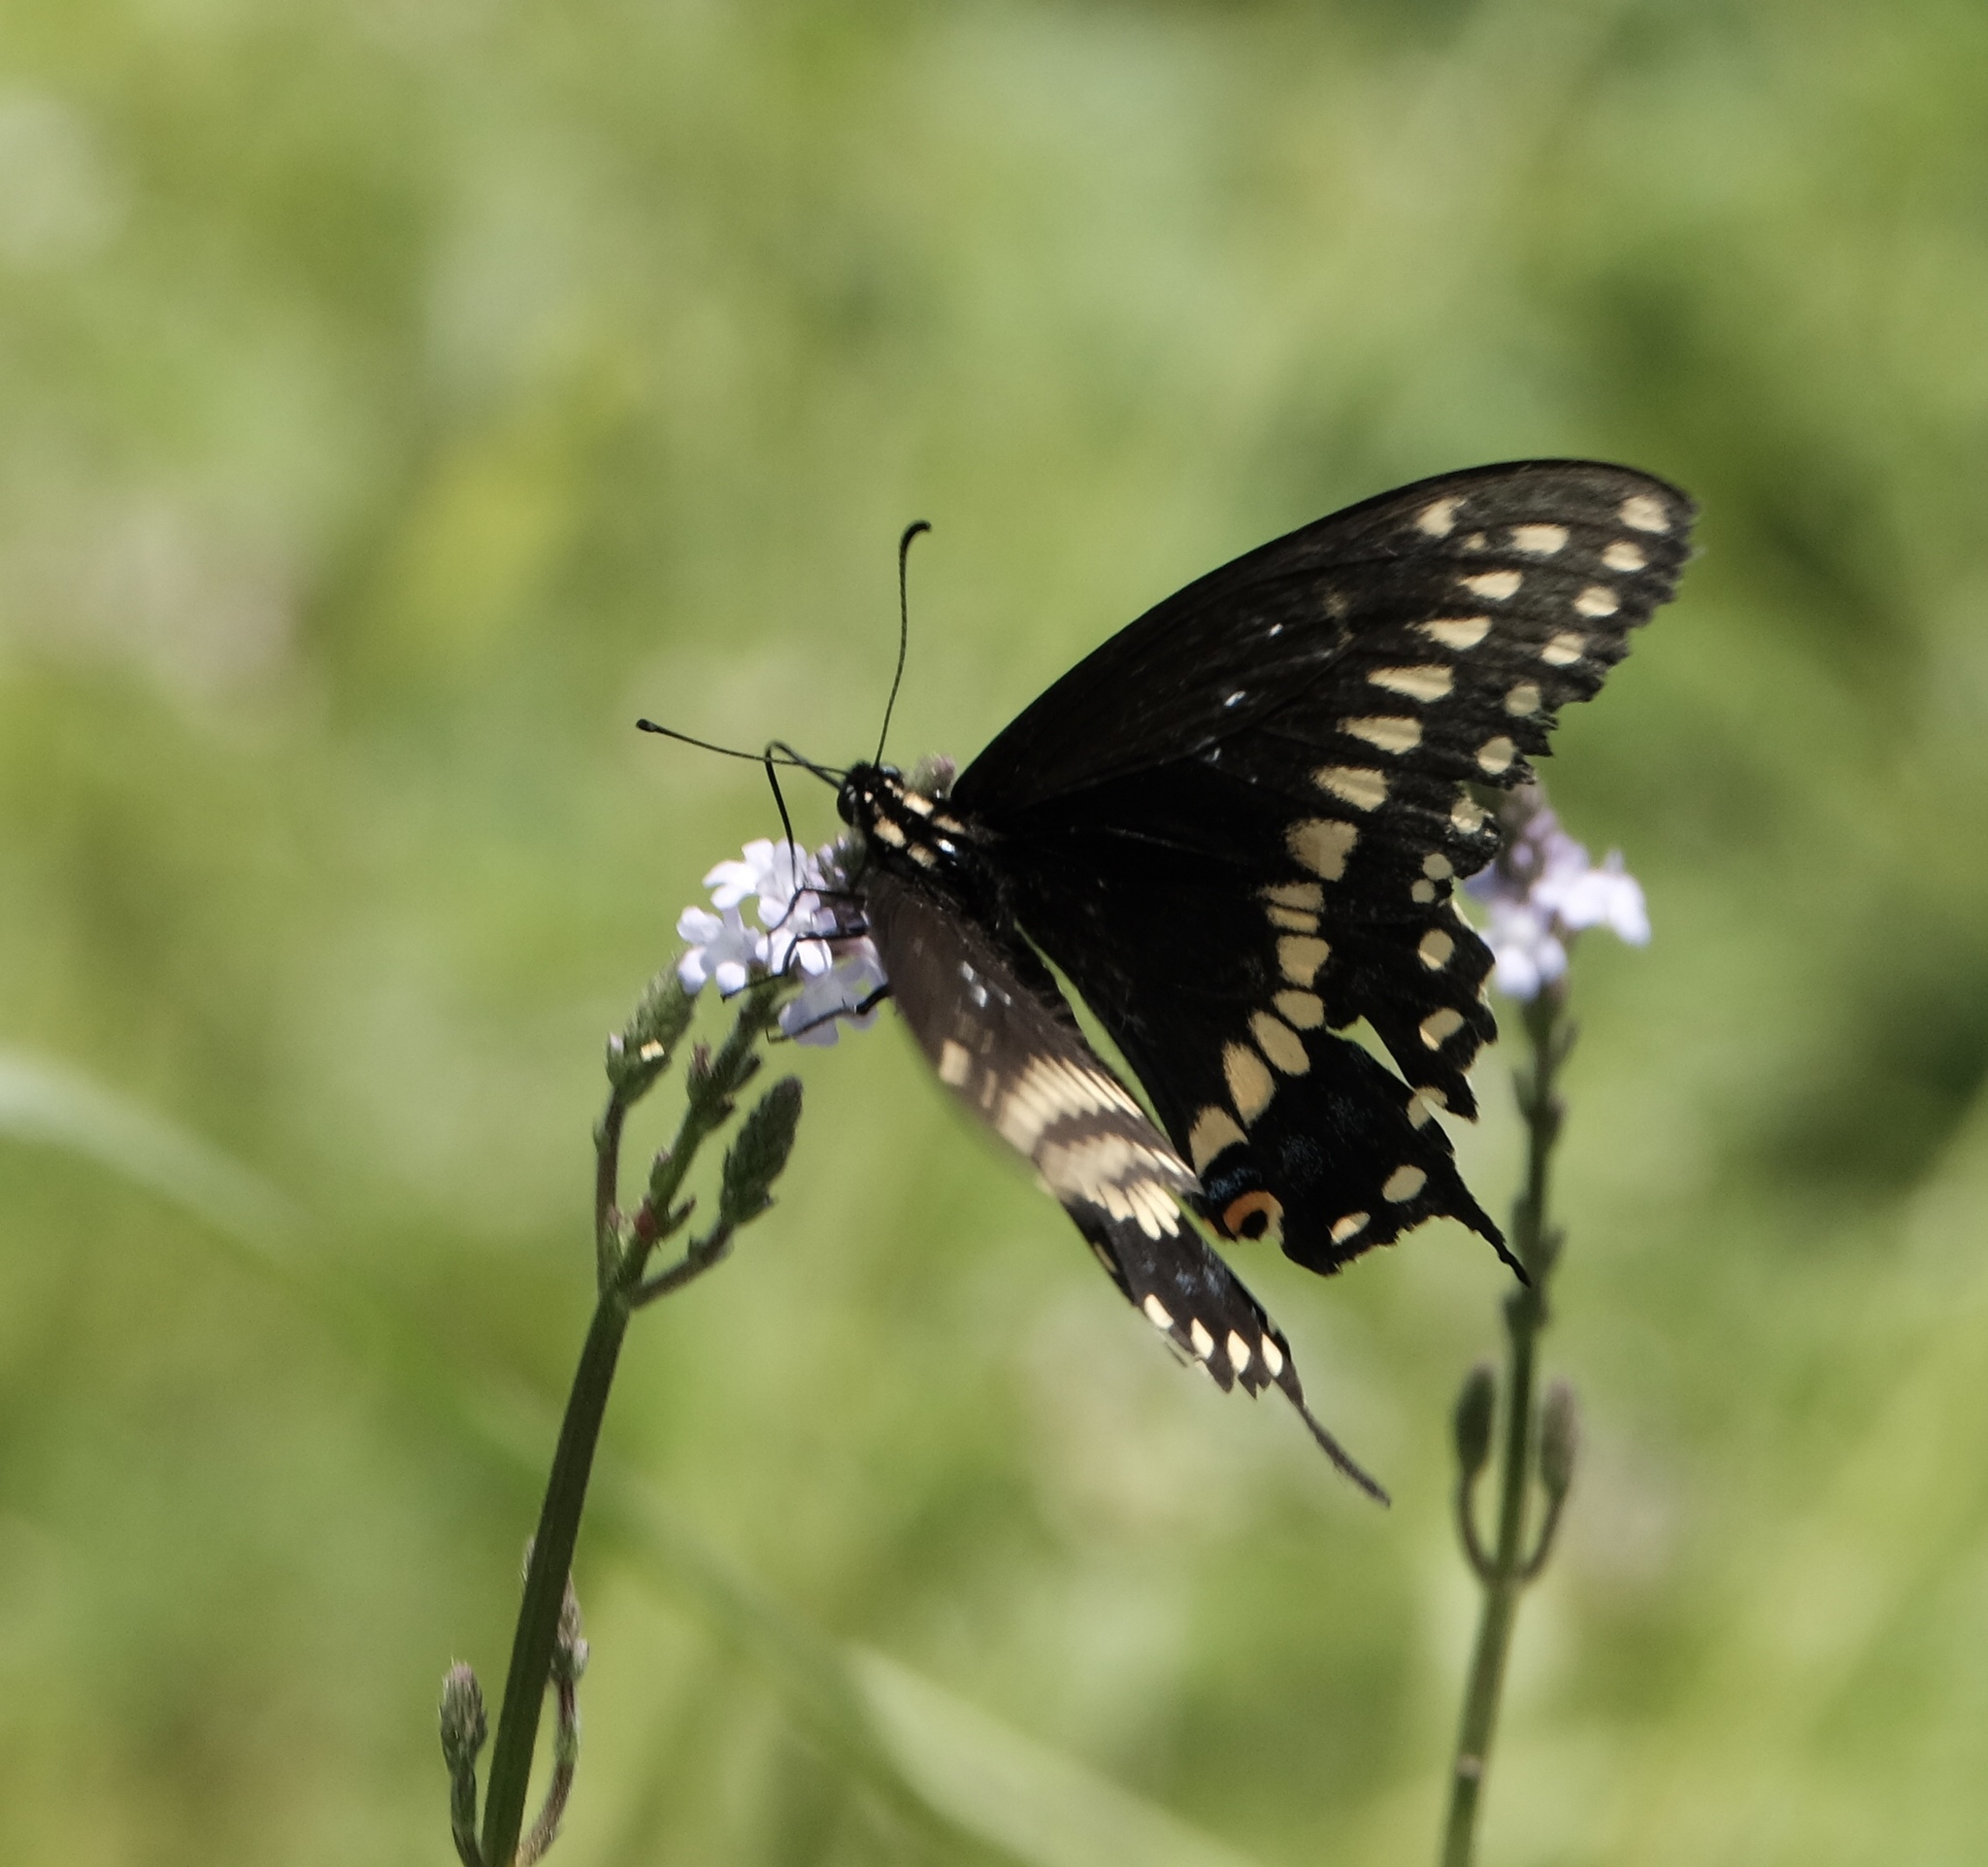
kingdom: Animalia
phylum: Arthropoda
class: Insecta
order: Lepidoptera
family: Papilionidae
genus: Papilio
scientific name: Papilio polyxenes
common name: Black swallowtail
